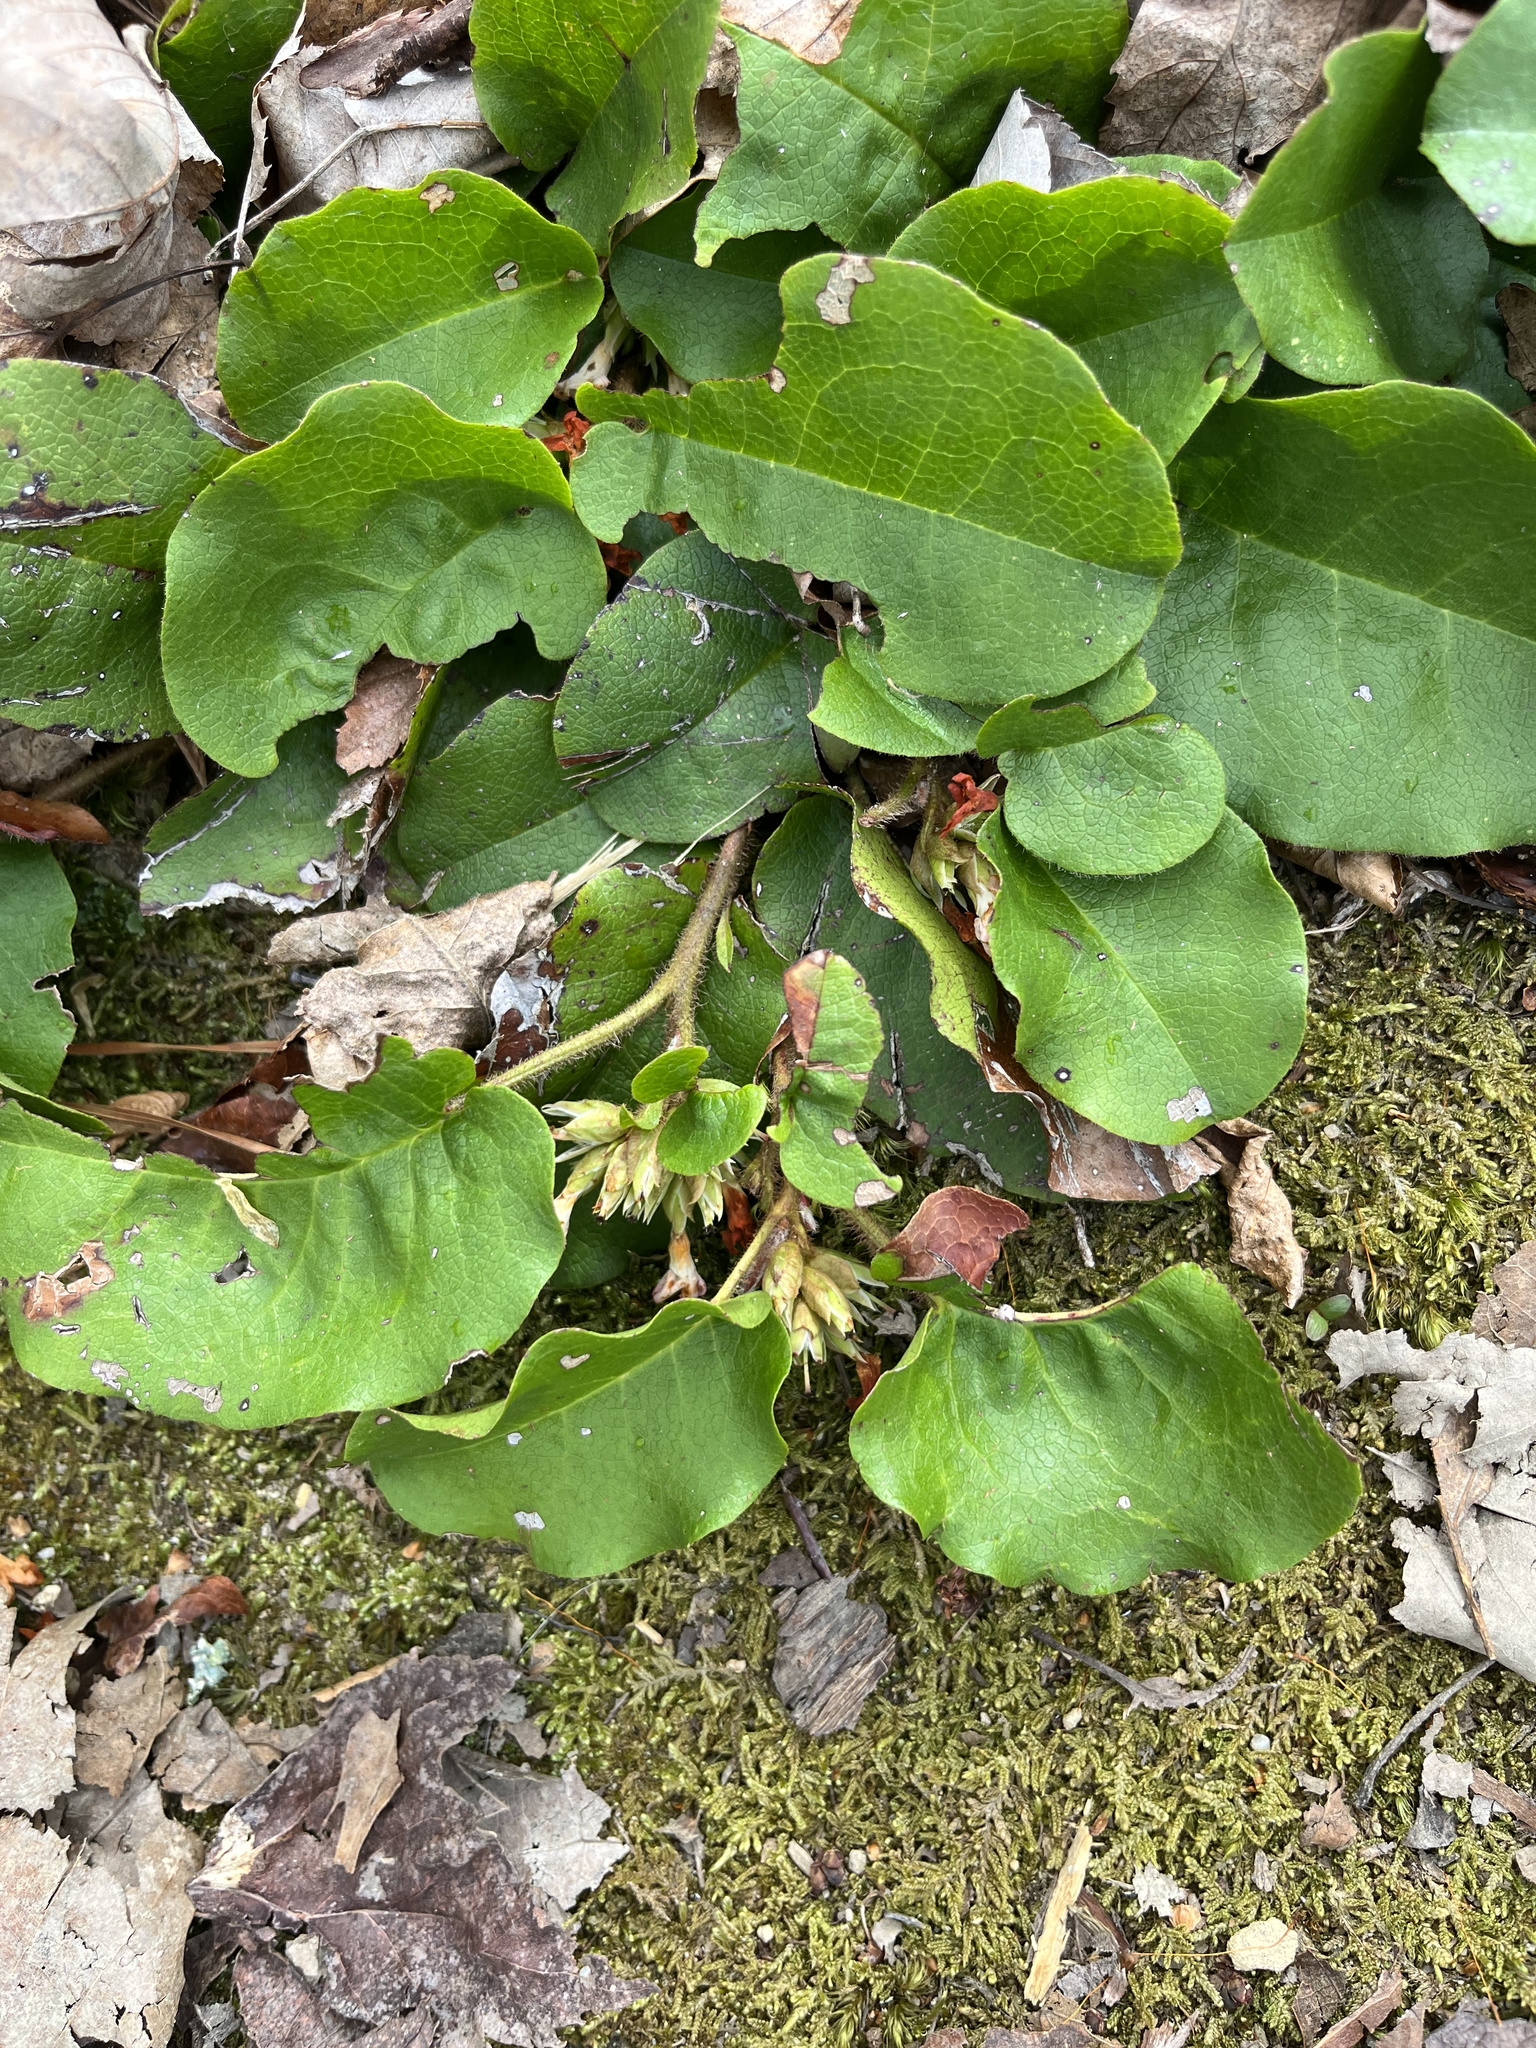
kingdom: Plantae
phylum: Tracheophyta
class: Magnoliopsida
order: Ericales
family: Ericaceae
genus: Epigaea
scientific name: Epigaea repens
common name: Gravelroot
